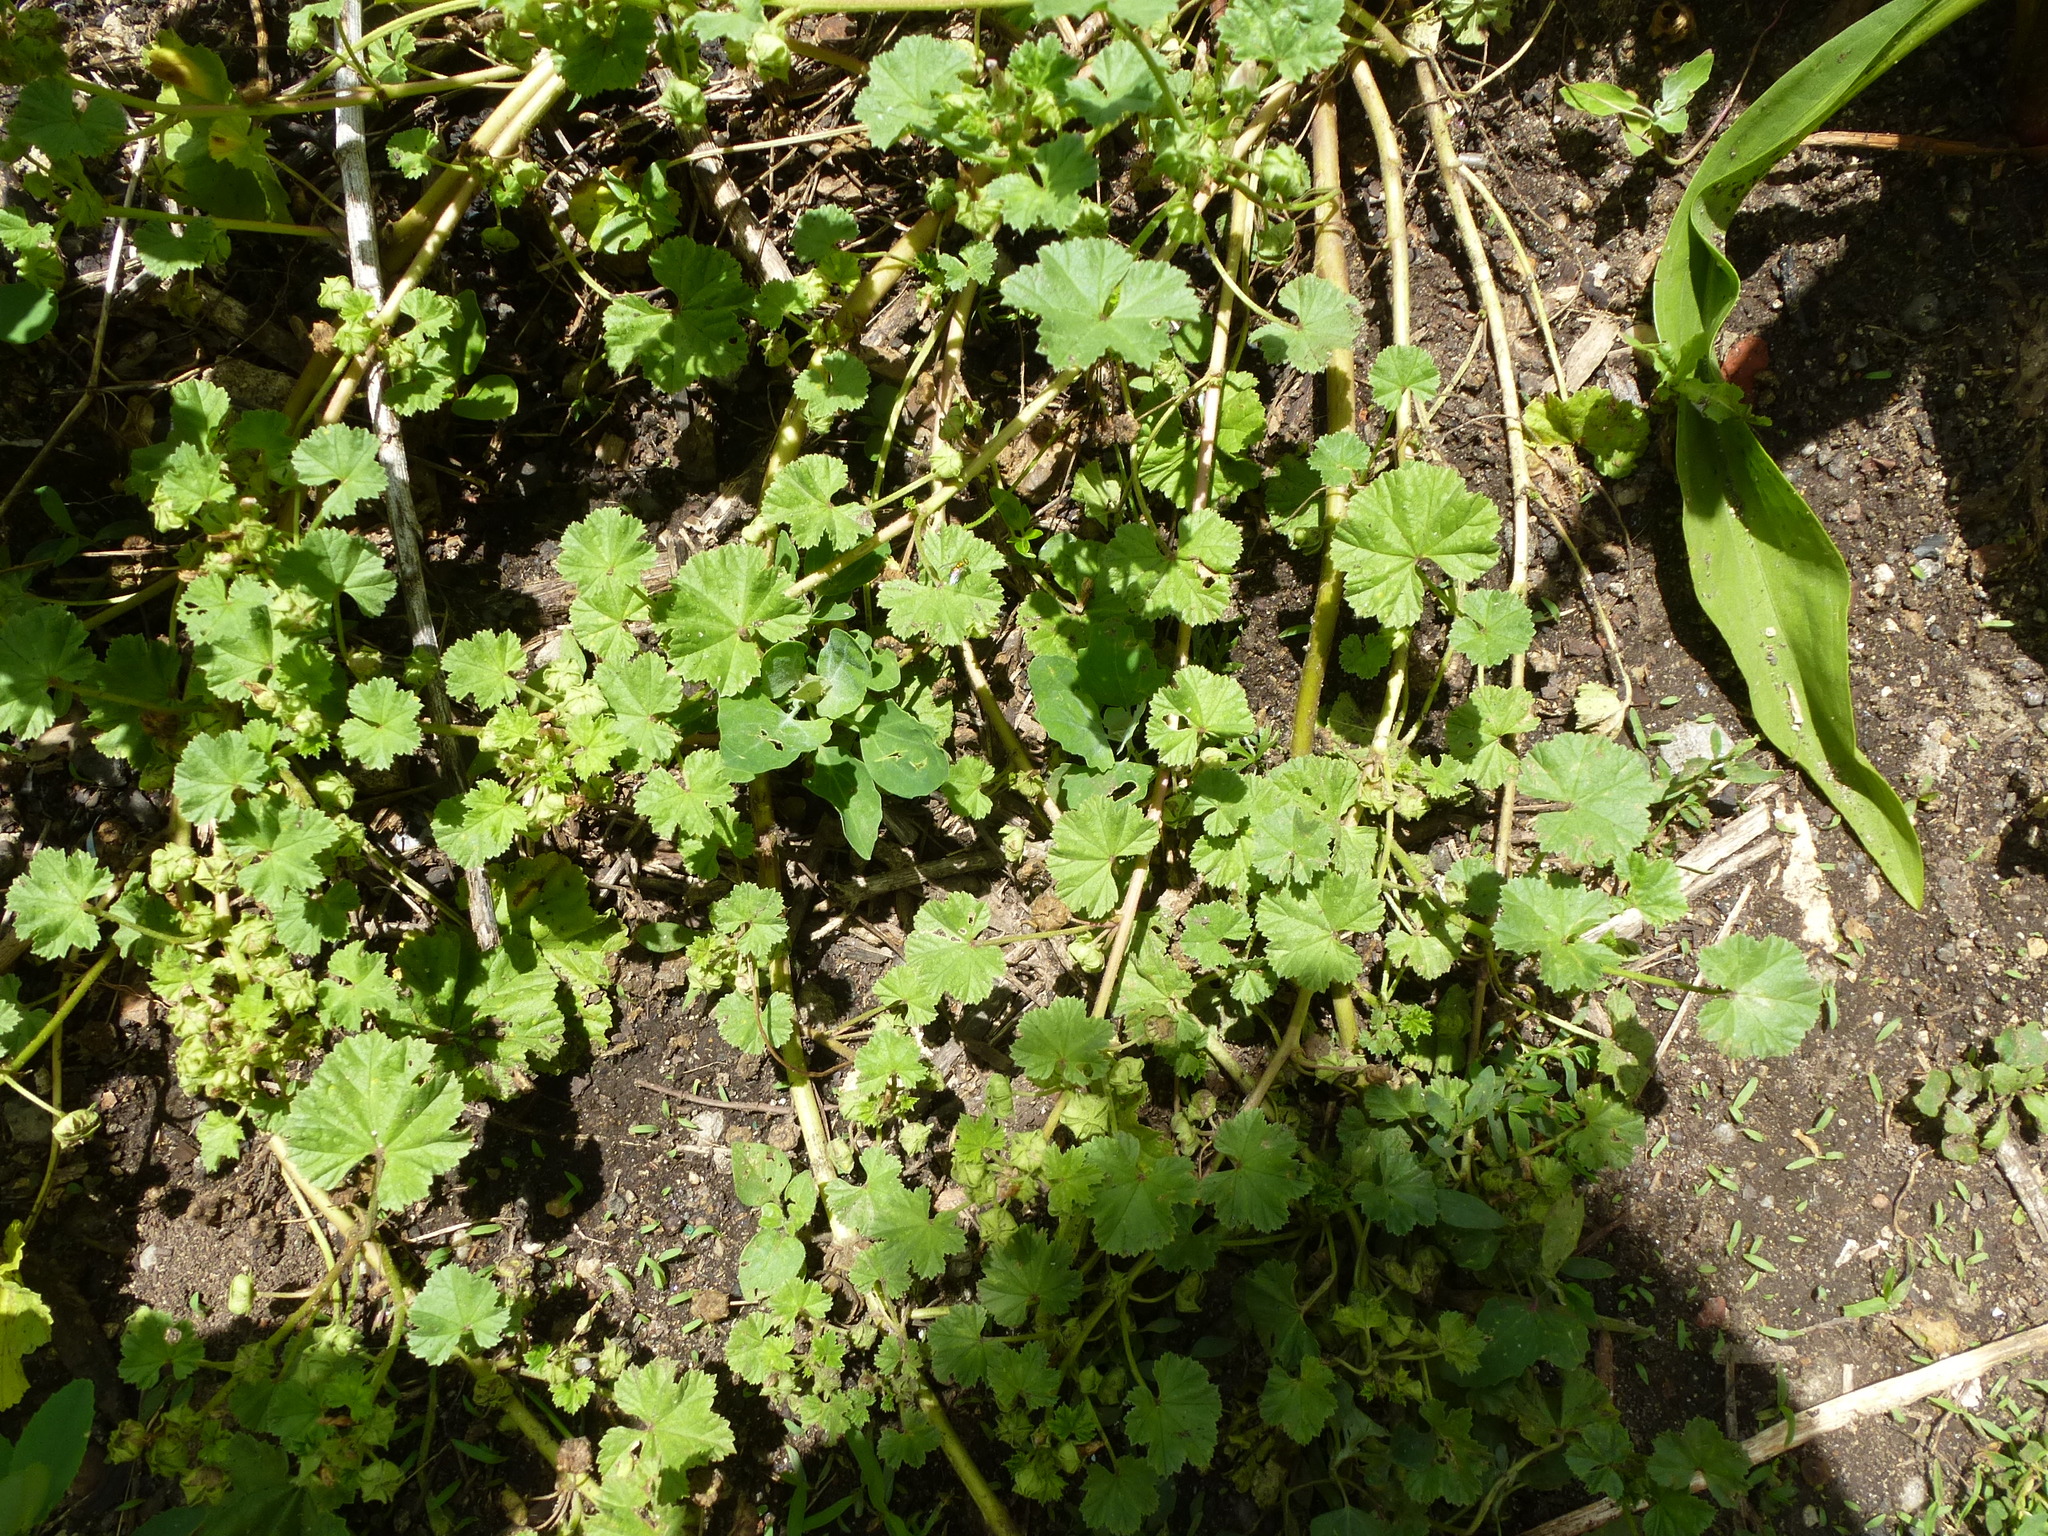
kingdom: Plantae
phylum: Tracheophyta
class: Magnoliopsida
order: Malvales
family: Malvaceae
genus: Malva
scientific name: Malva neglecta
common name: Common mallow
